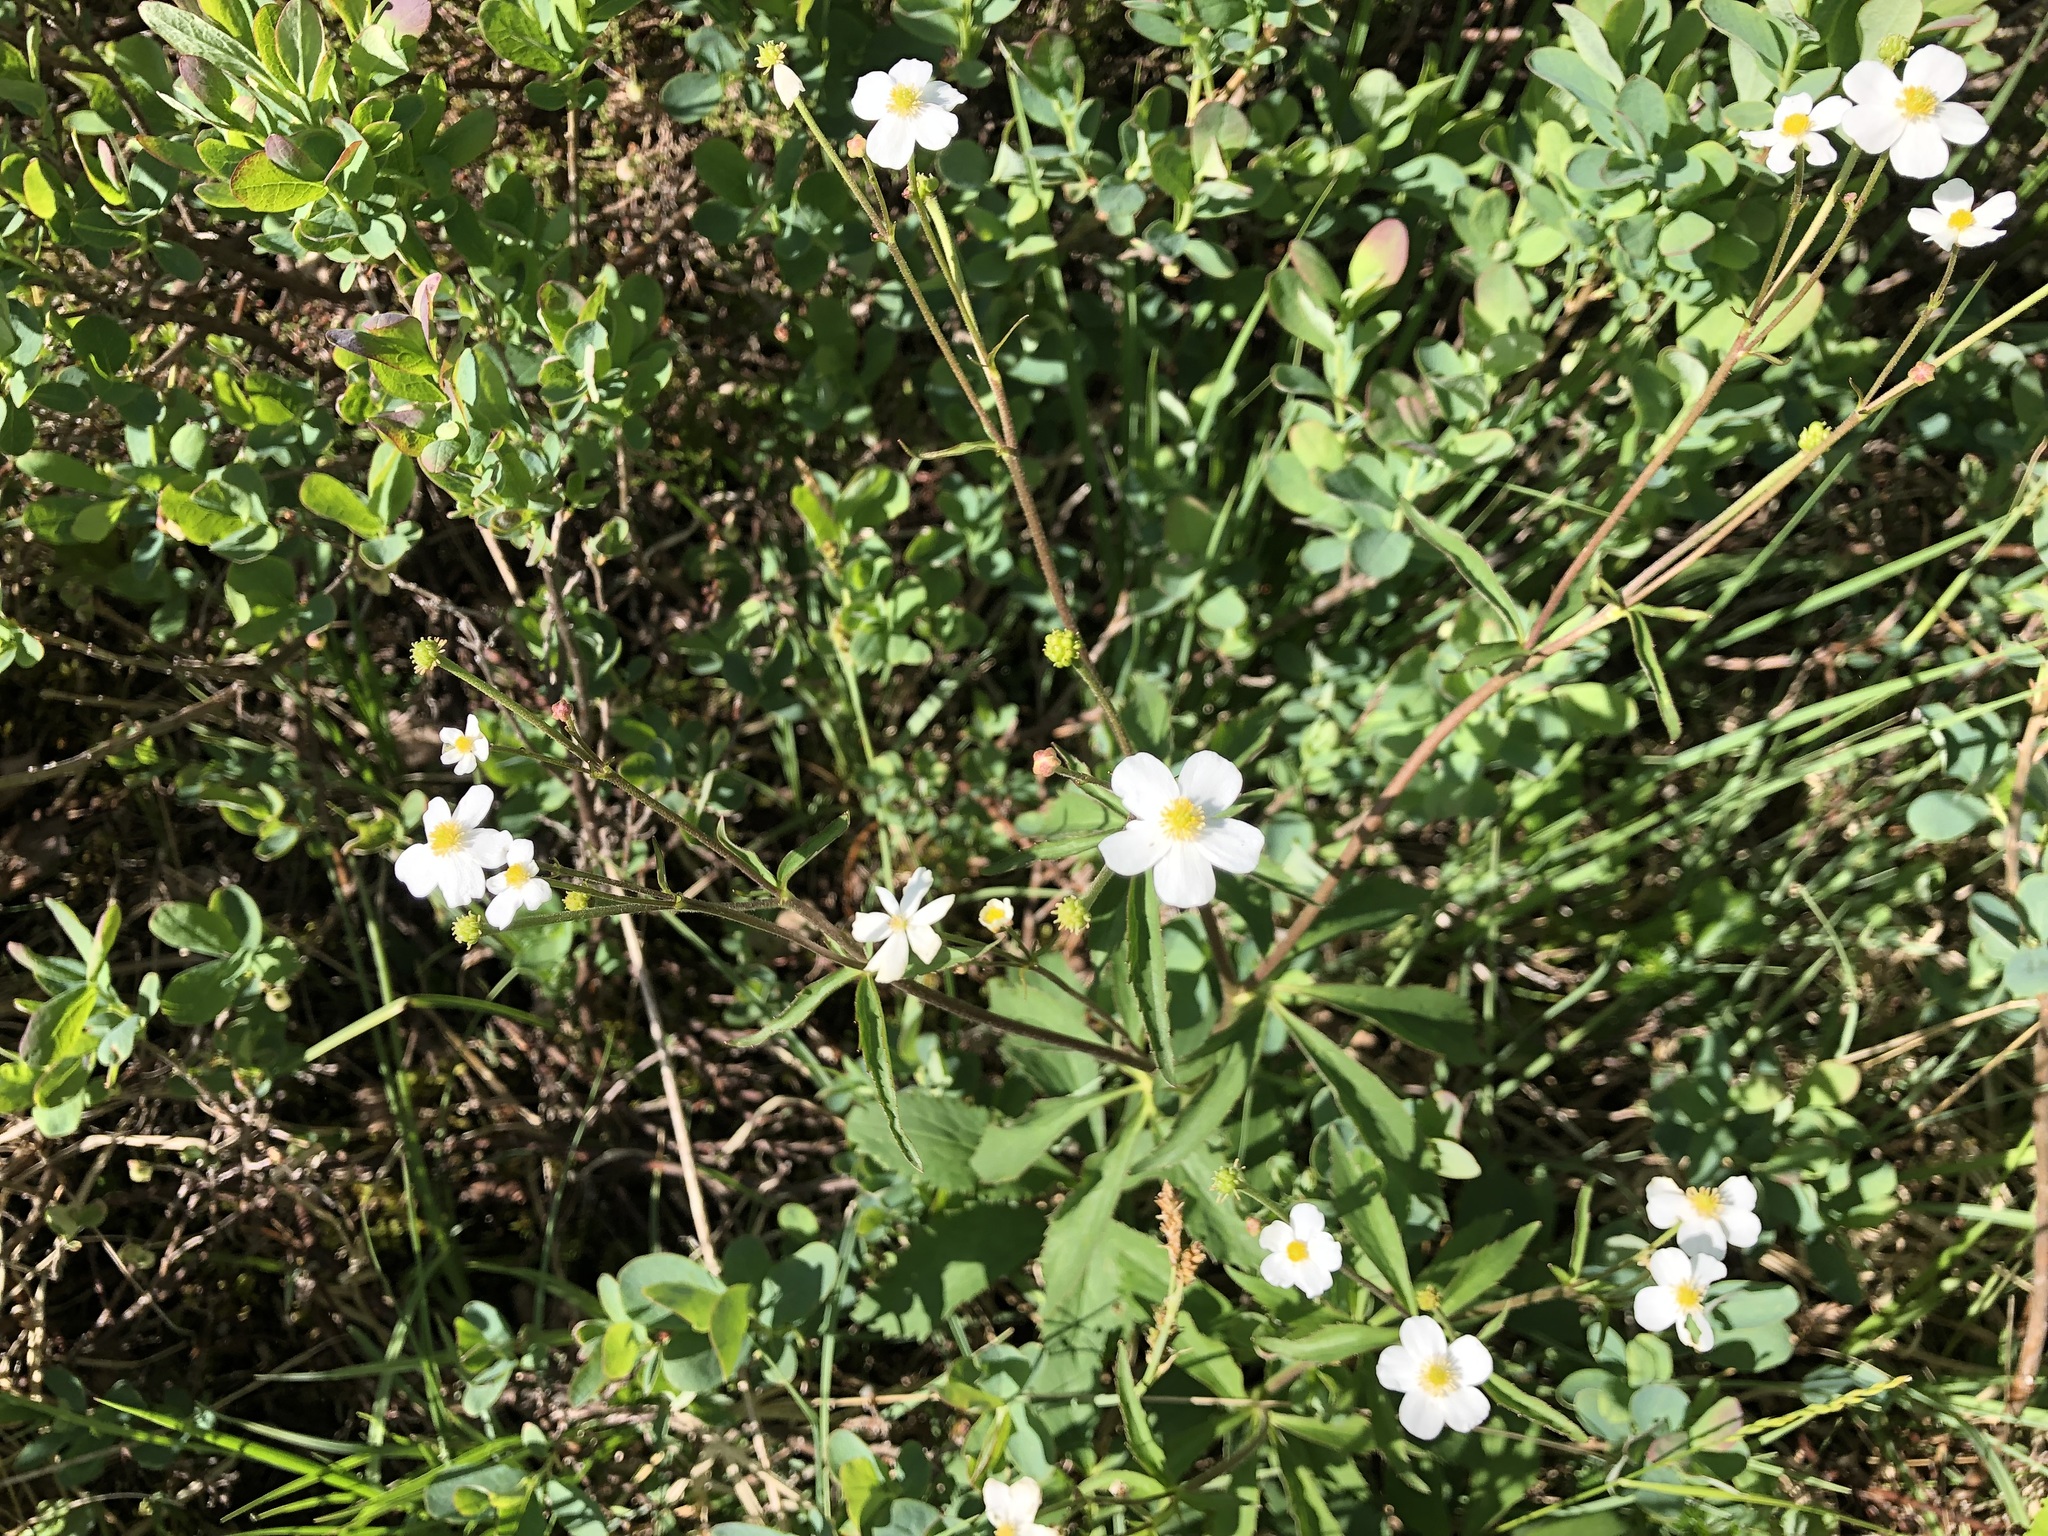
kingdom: Plantae
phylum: Tracheophyta
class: Magnoliopsida
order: Ranunculales
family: Ranunculaceae
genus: Ranunculus
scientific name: Ranunculus aconitifolius
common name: Aconite-leaved buttercup
